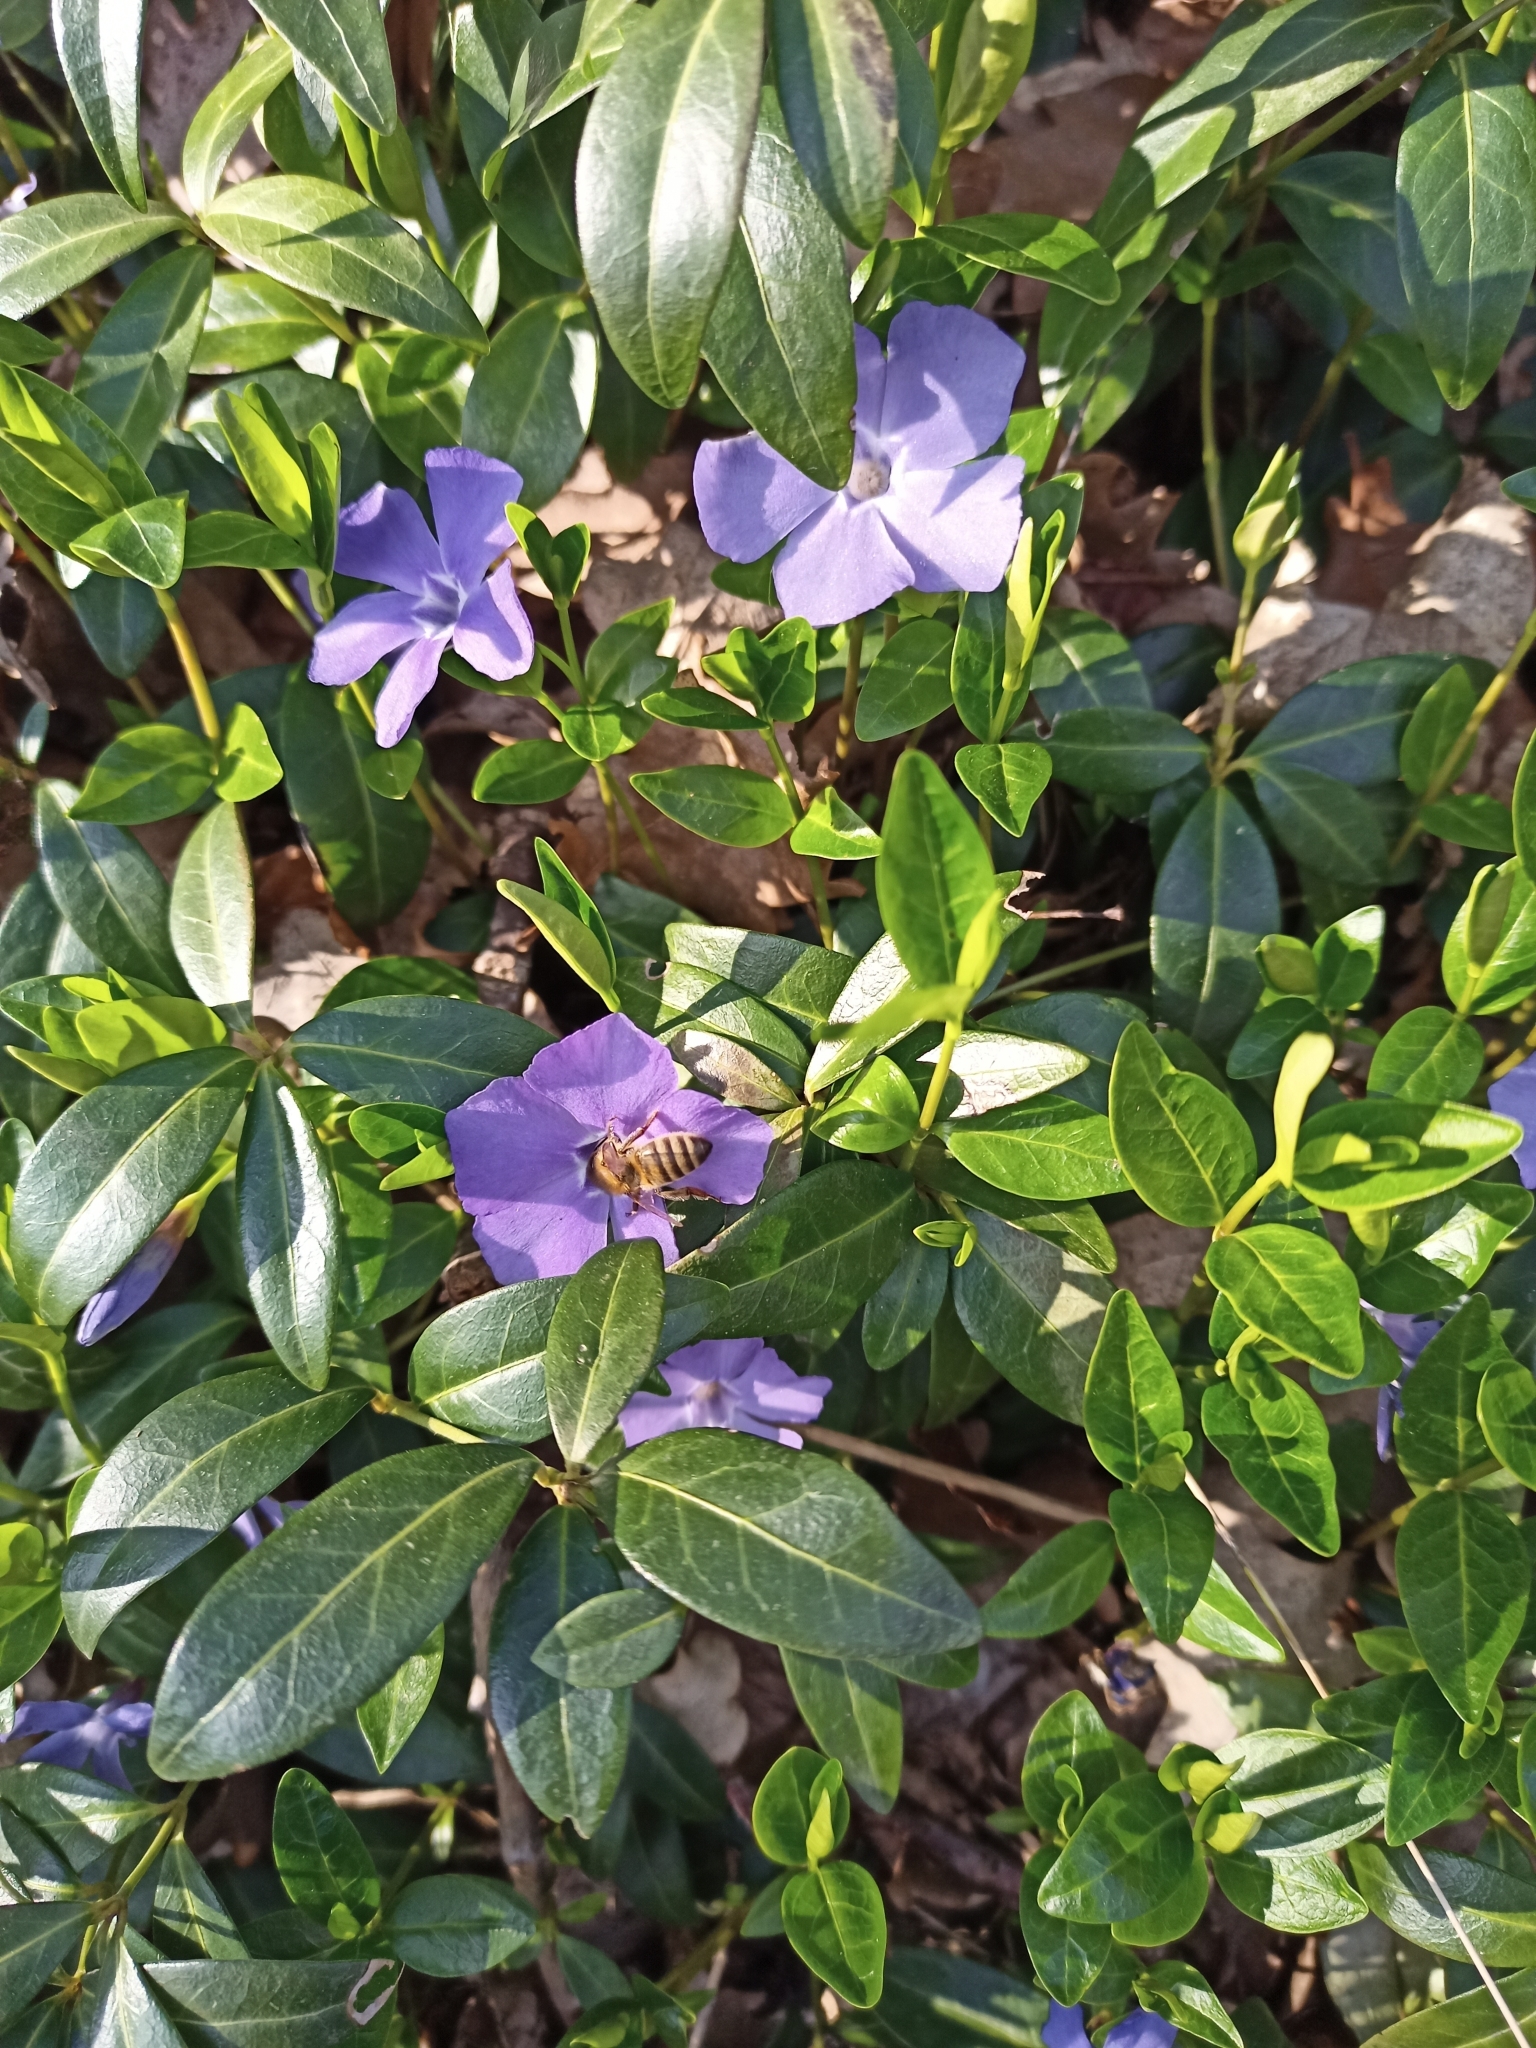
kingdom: Plantae
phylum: Tracheophyta
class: Magnoliopsida
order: Gentianales
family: Apocynaceae
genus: Vinca
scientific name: Vinca minor
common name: Lesser periwinkle
